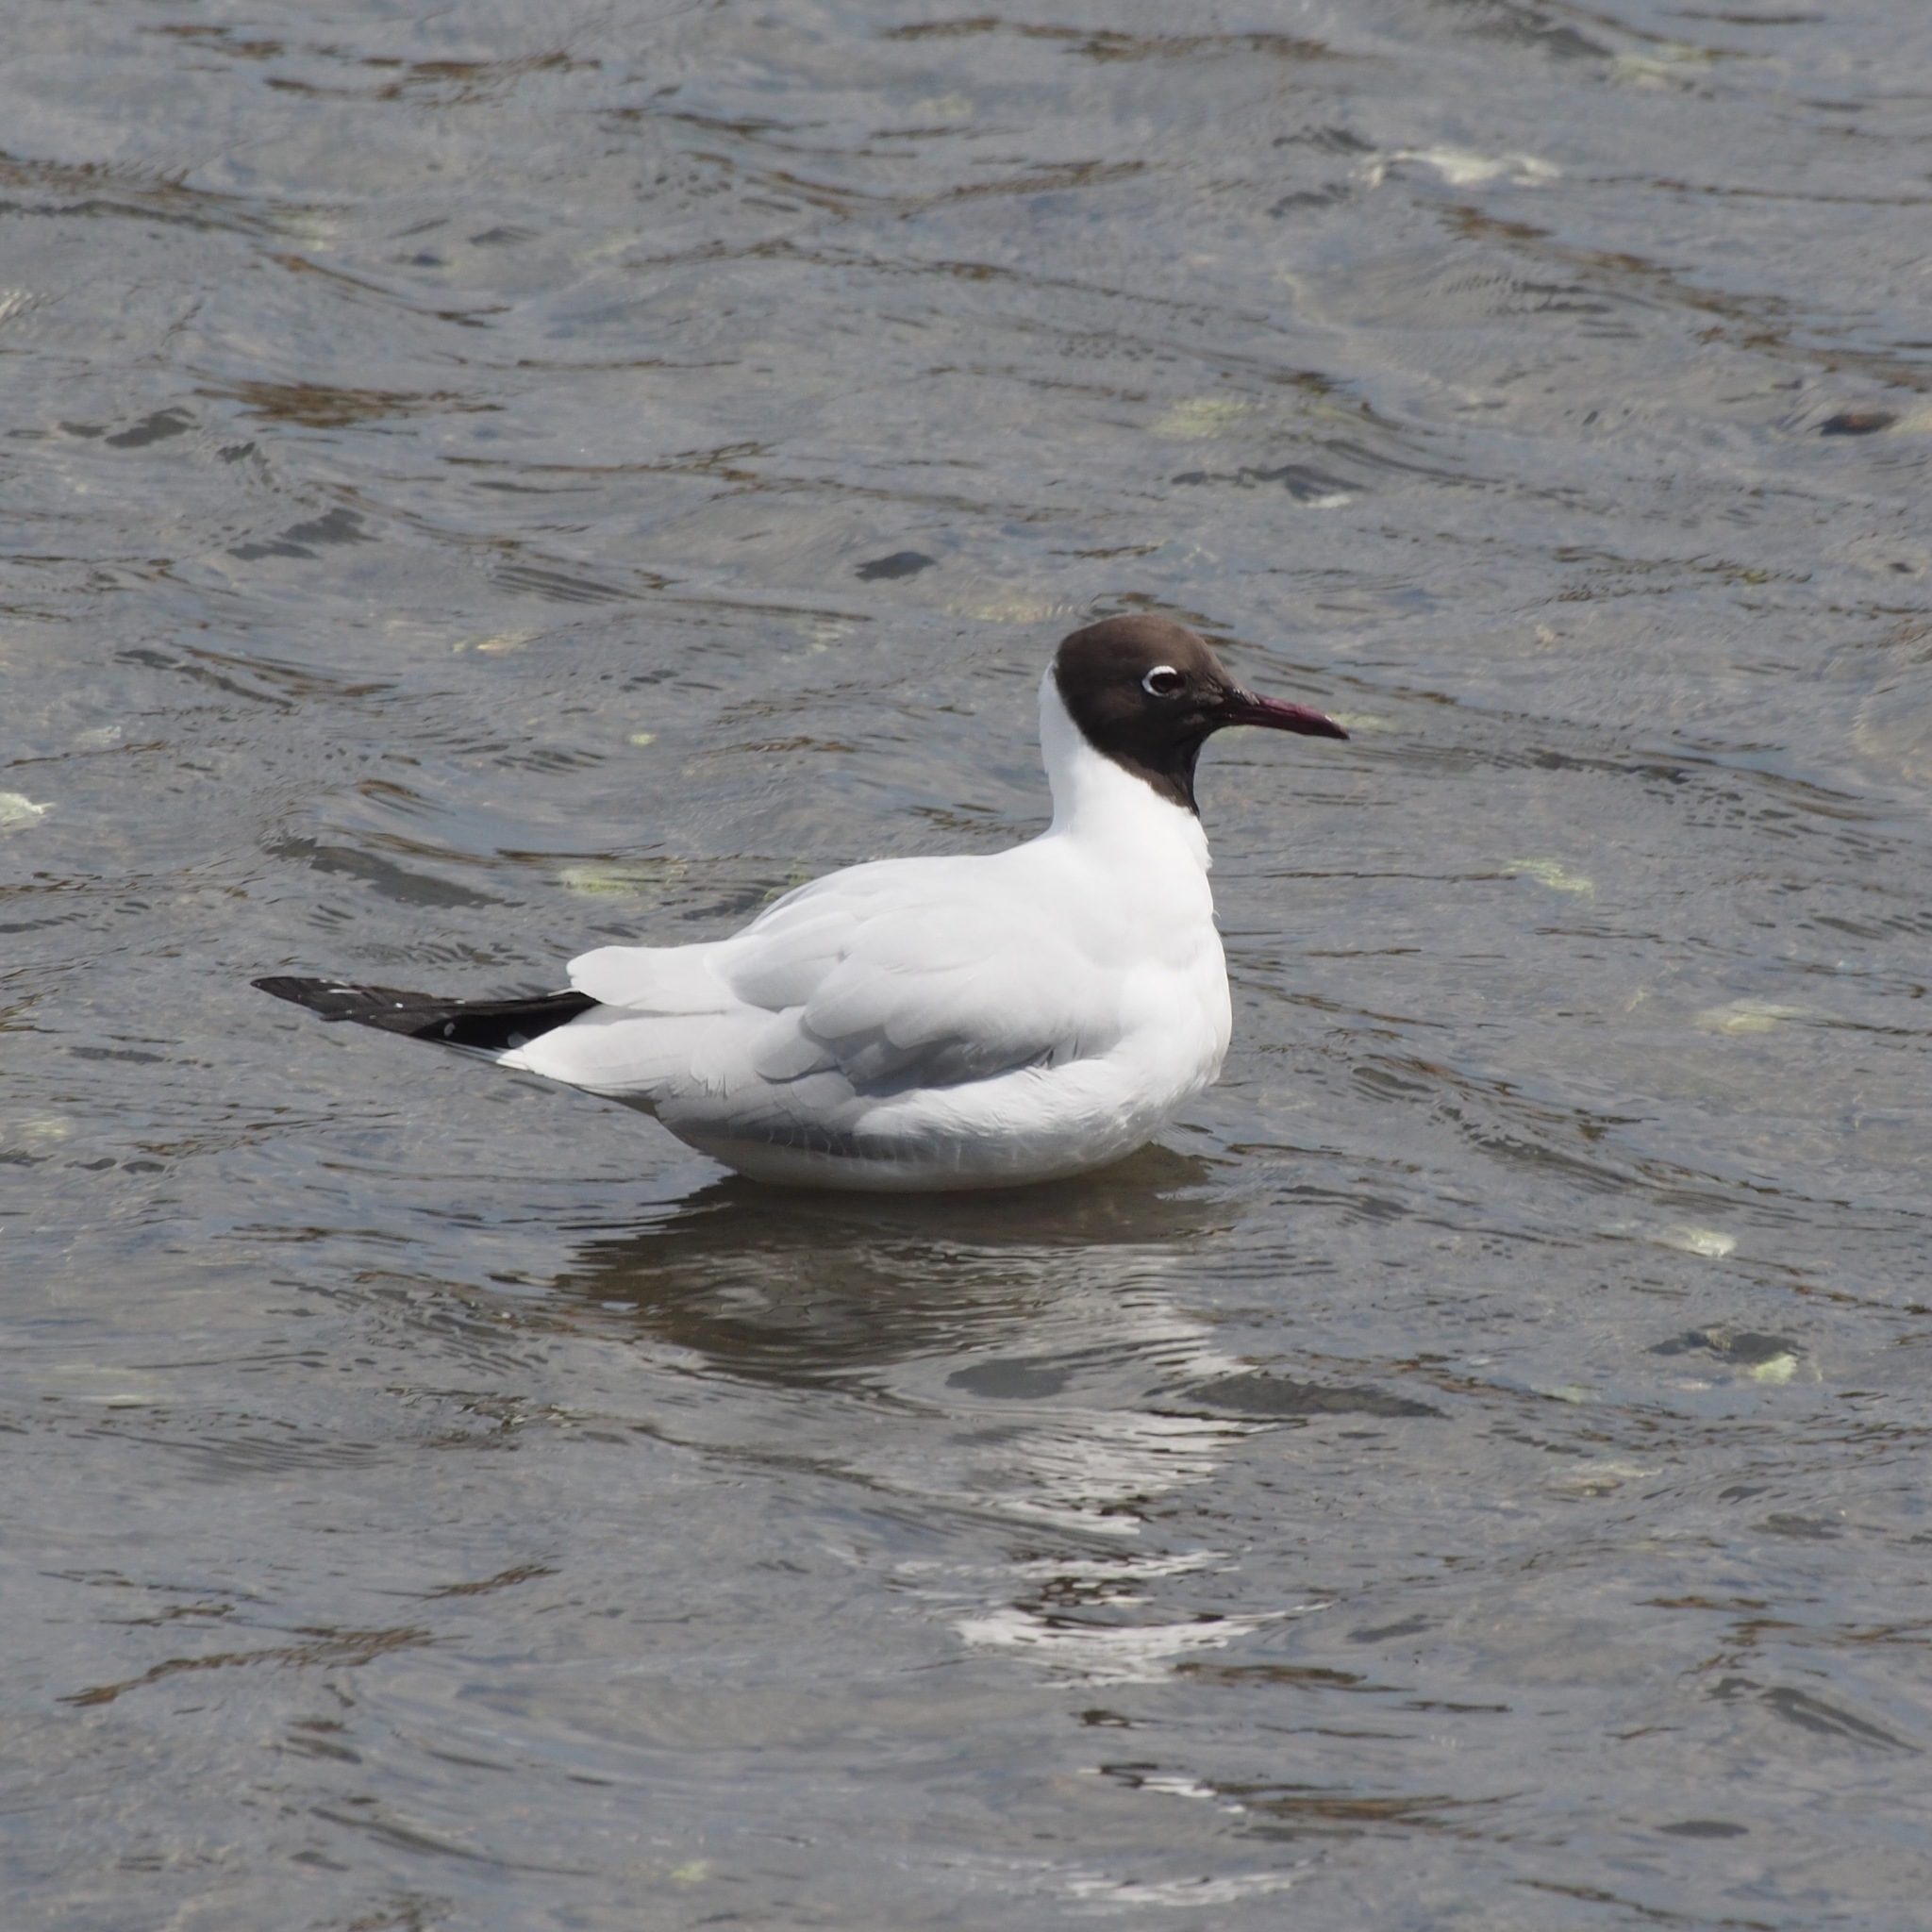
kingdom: Animalia
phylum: Chordata
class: Aves
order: Charadriiformes
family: Laridae
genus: Chroicocephalus
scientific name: Chroicocephalus ridibundus
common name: Black-headed gull
